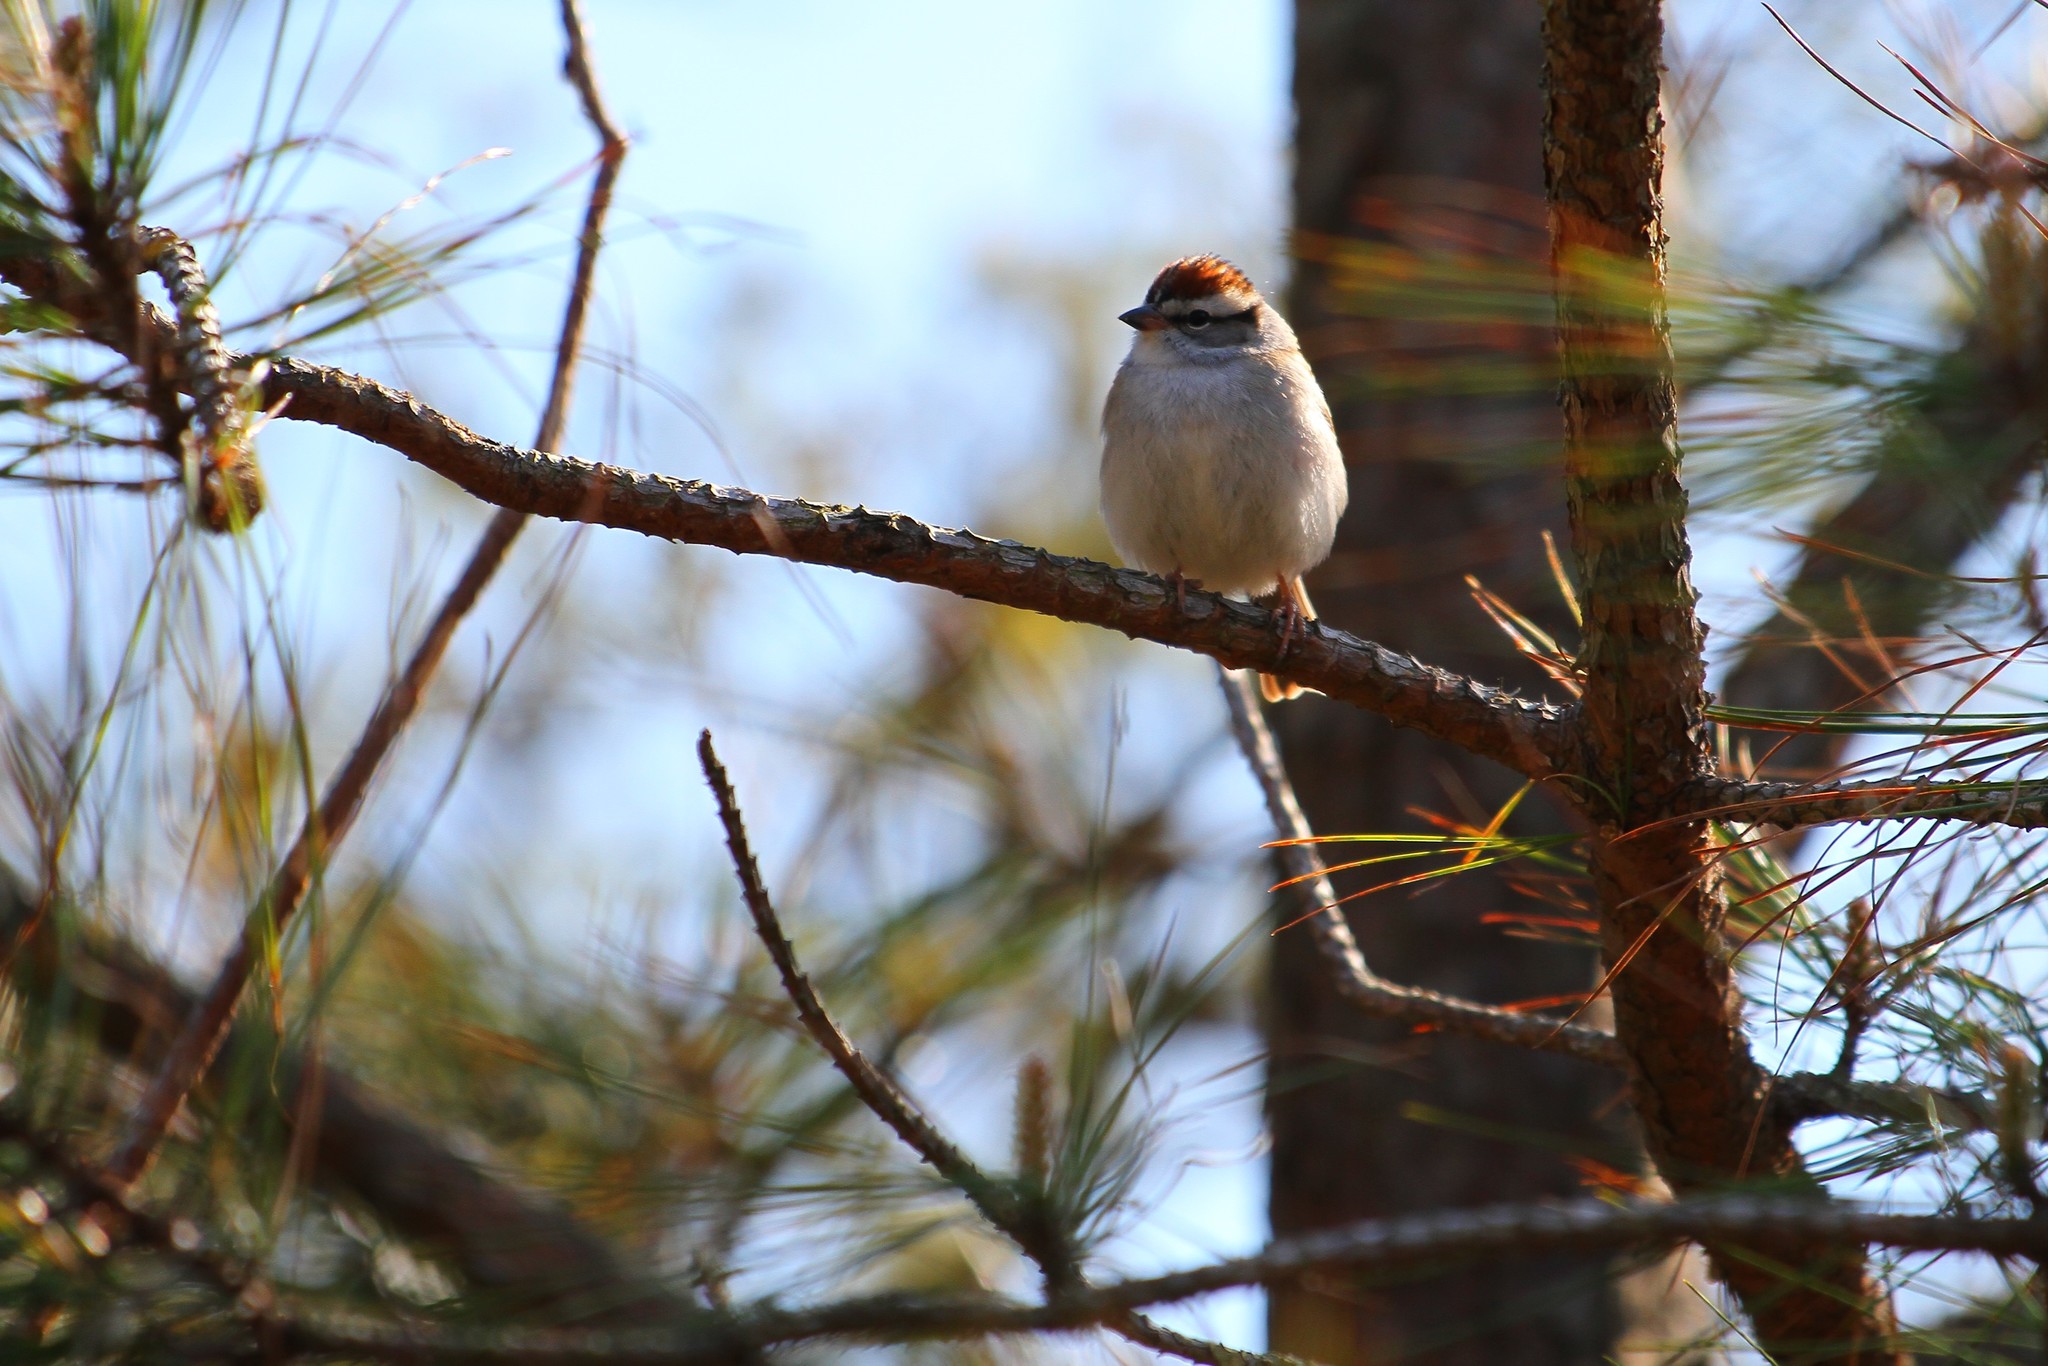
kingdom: Animalia
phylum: Chordata
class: Aves
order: Passeriformes
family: Passerellidae
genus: Spizella
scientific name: Spizella passerina
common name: Chipping sparrow
